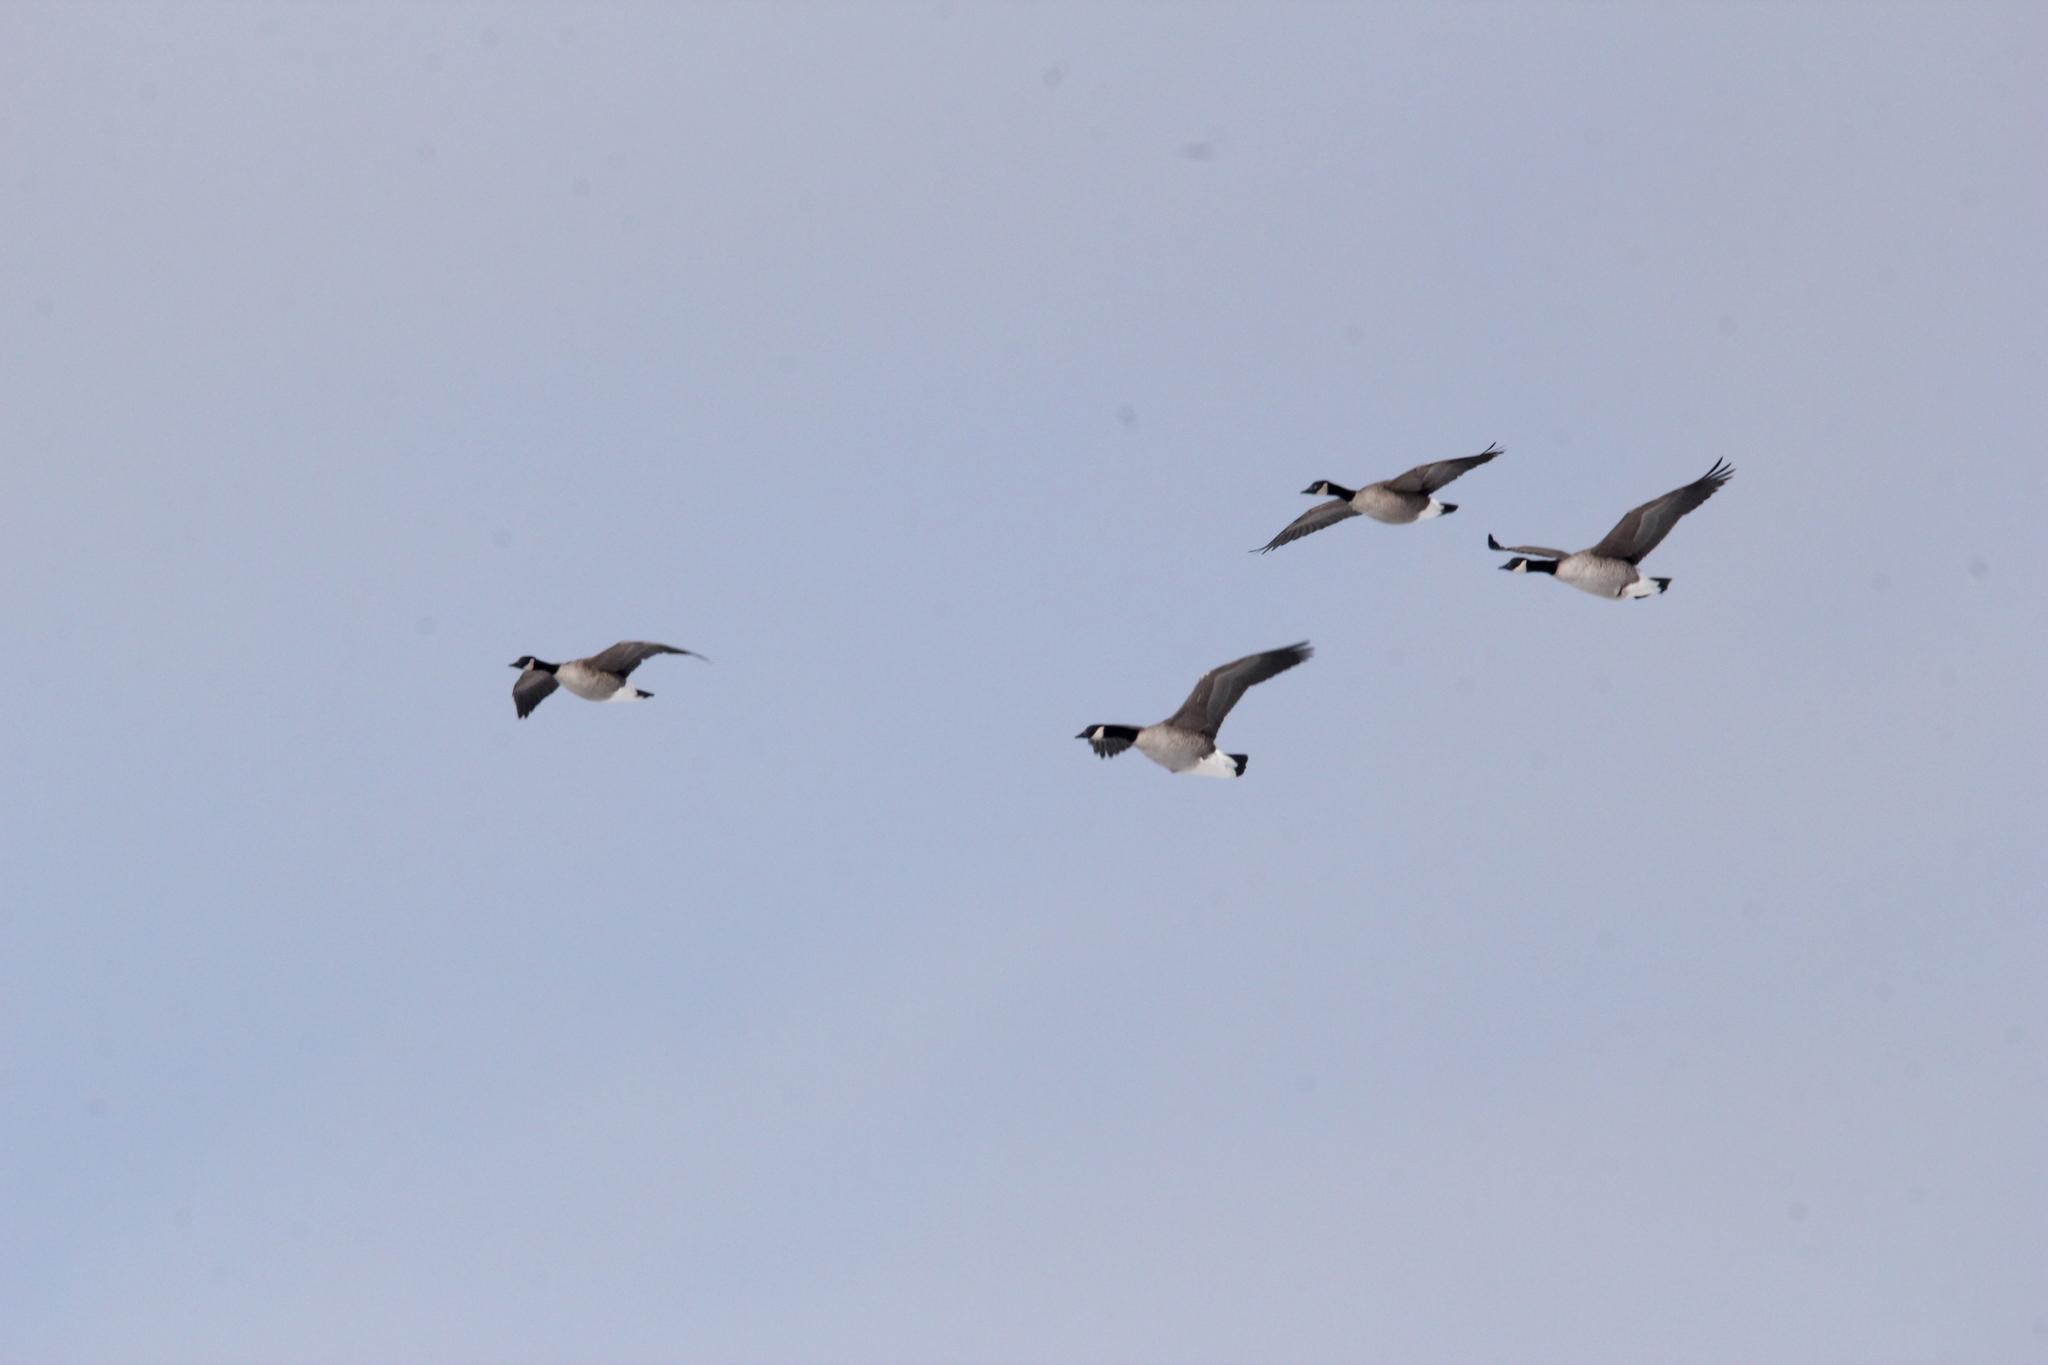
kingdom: Animalia
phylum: Chordata
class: Aves
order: Anseriformes
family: Anatidae
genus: Branta
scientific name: Branta canadensis
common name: Canada goose
